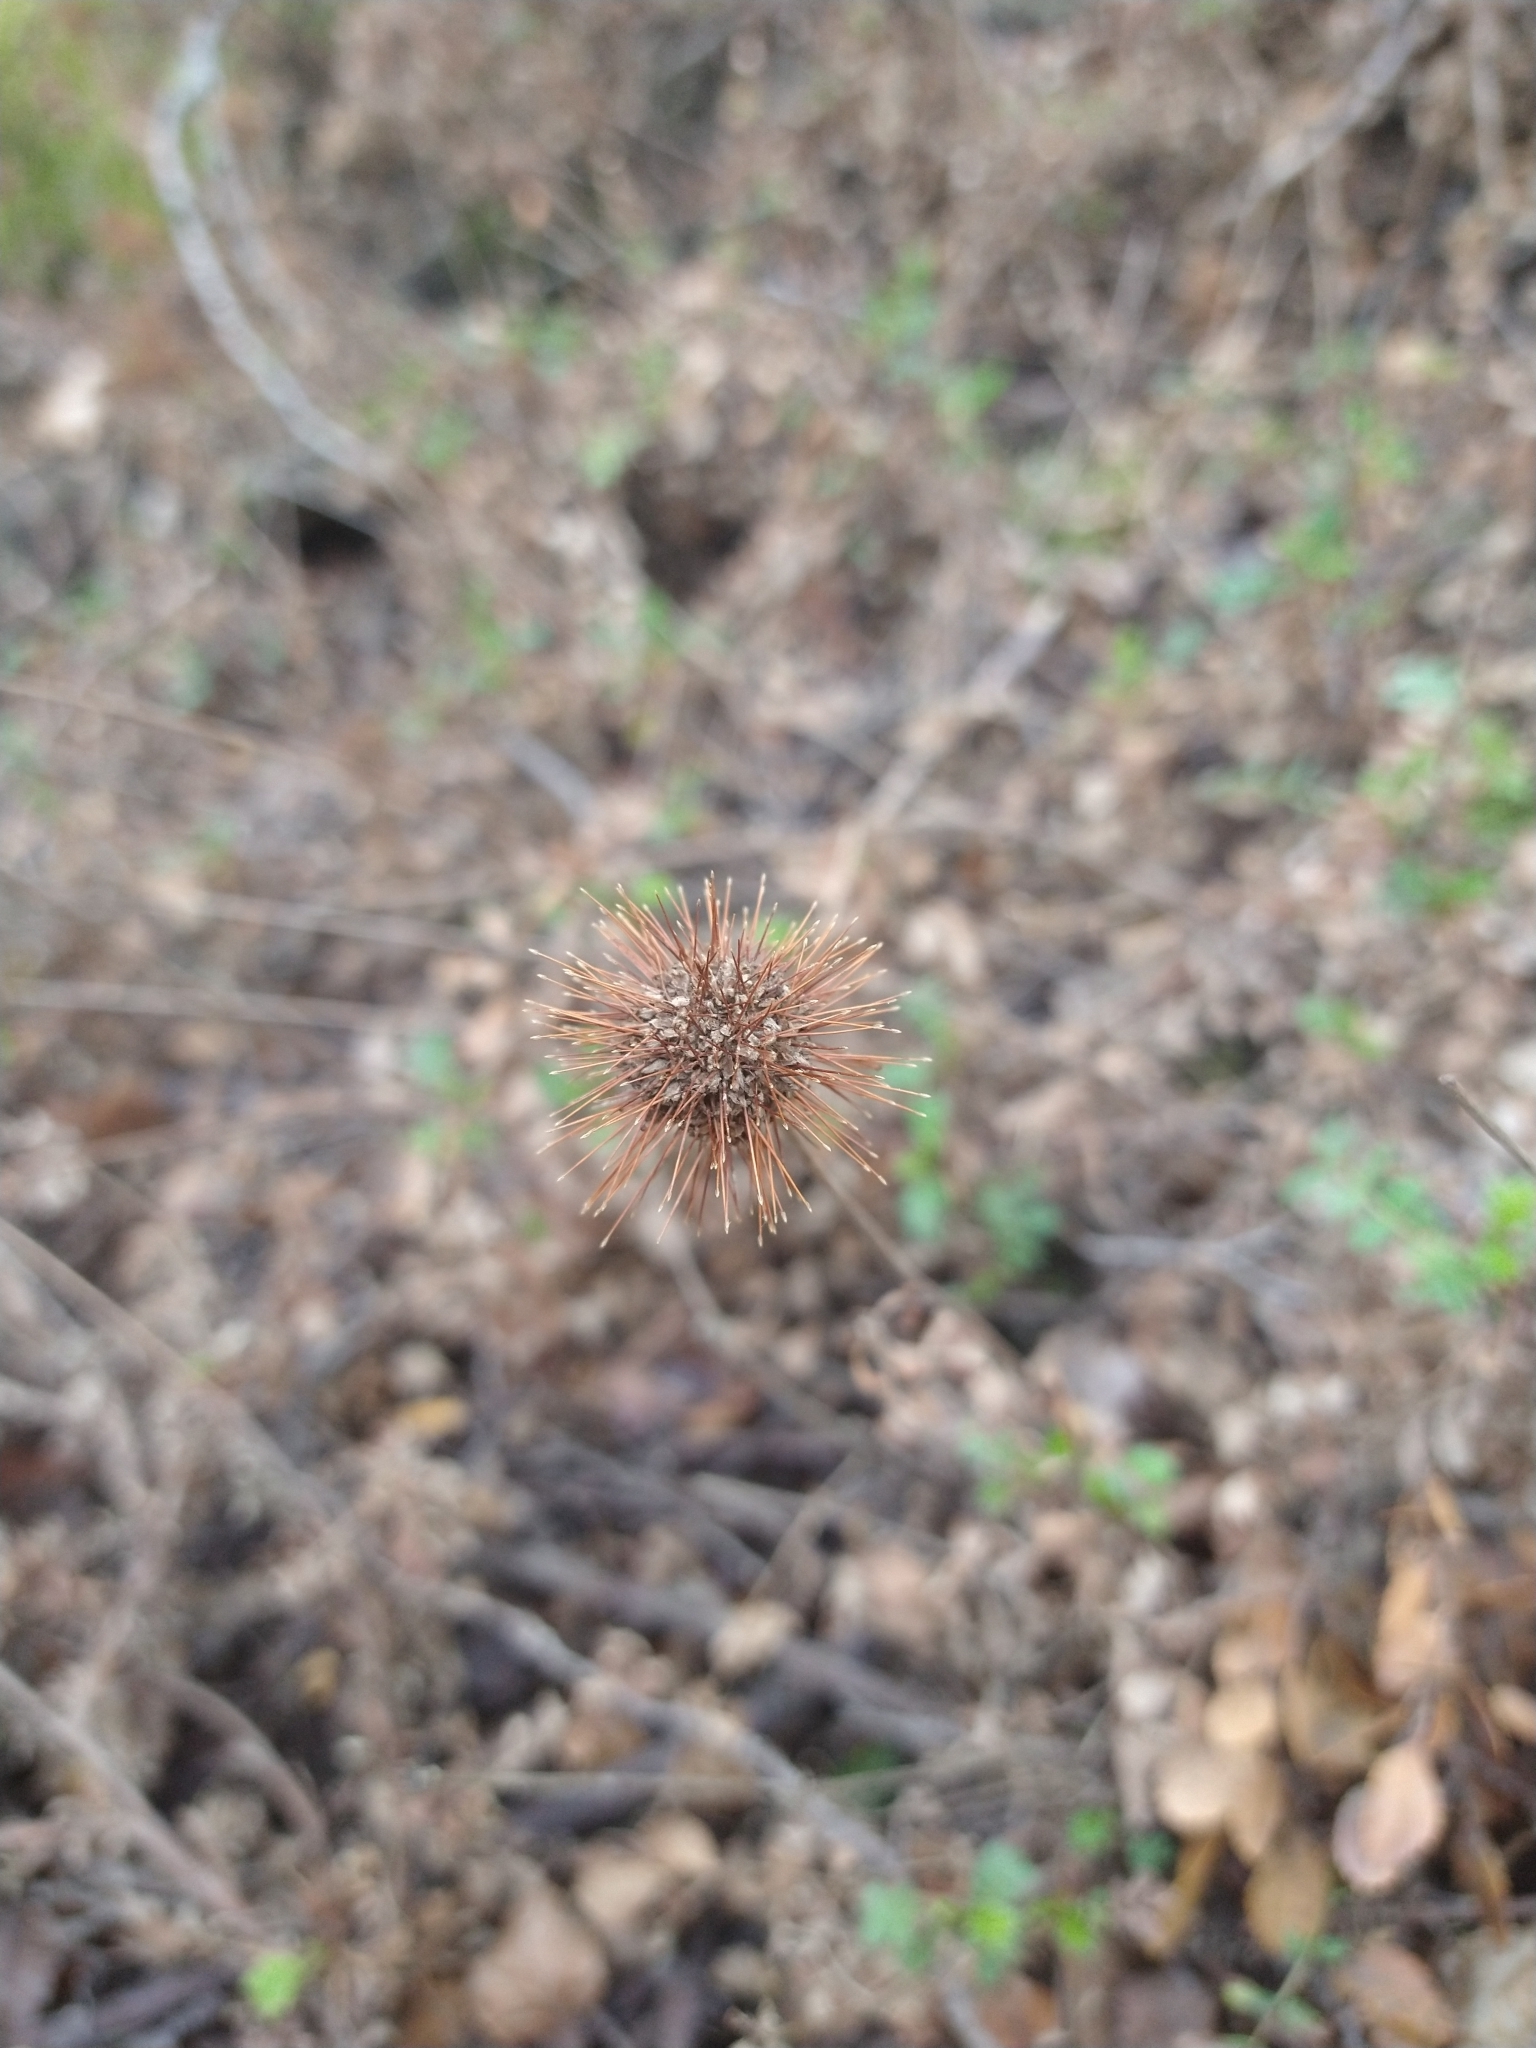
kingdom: Plantae
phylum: Tracheophyta
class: Magnoliopsida
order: Rosales
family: Rosaceae
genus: Acaena
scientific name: Acaena magellanica
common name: New zealand burr
